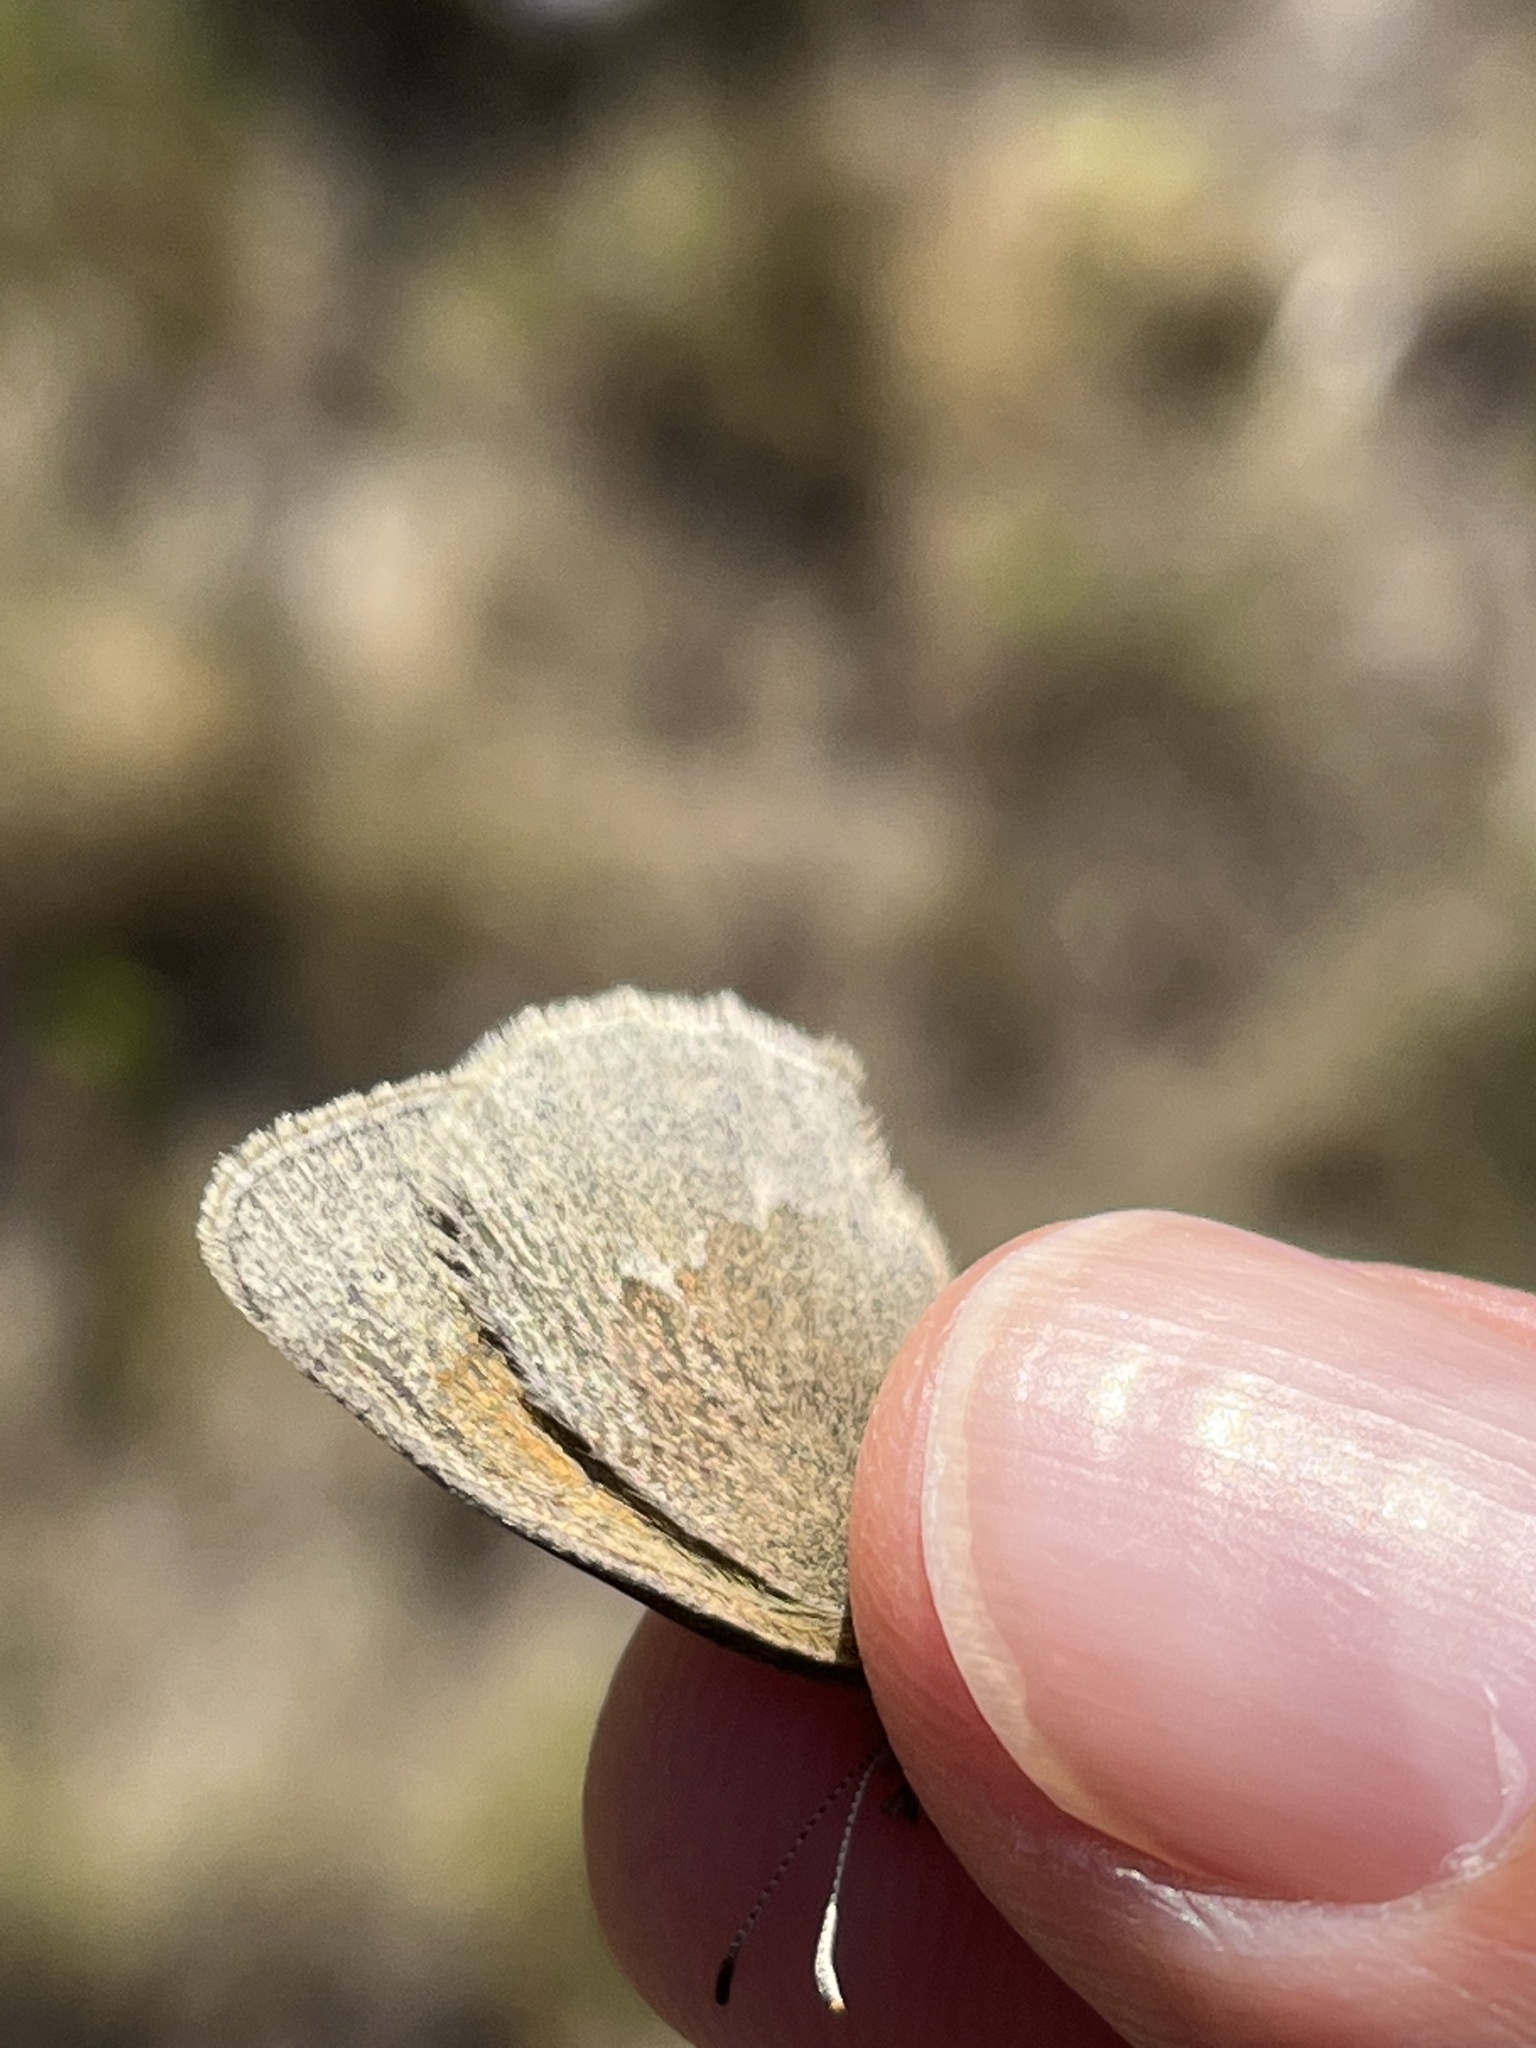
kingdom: Animalia
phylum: Arthropoda
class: Insecta
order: Lepidoptera
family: Nymphalidae
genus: Coenonympha
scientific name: Coenonympha california
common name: Common ringlet
